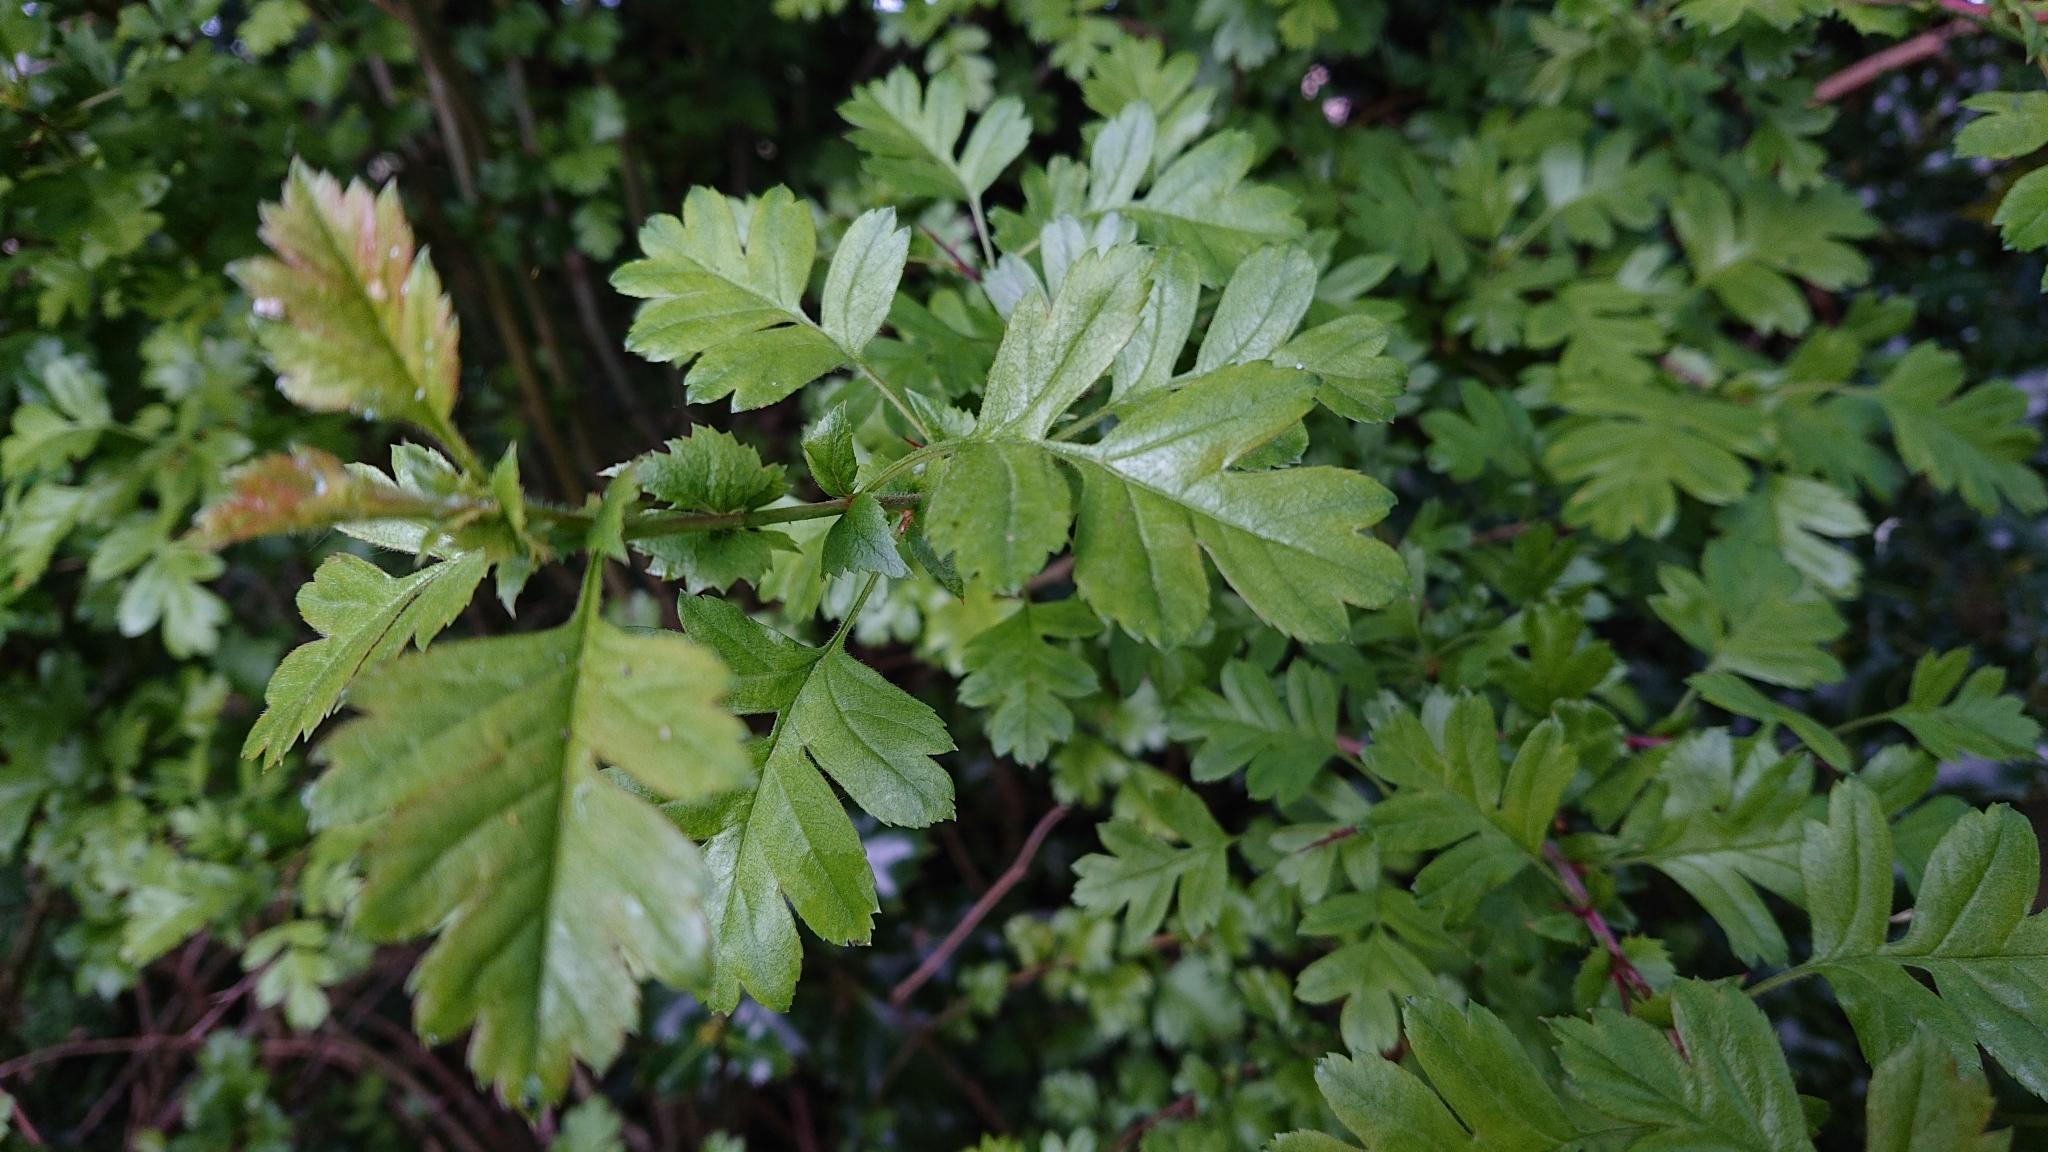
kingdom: Plantae
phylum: Tracheophyta
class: Magnoliopsida
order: Rosales
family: Rosaceae
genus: Crataegus
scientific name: Crataegus monogyna
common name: Hawthorn
